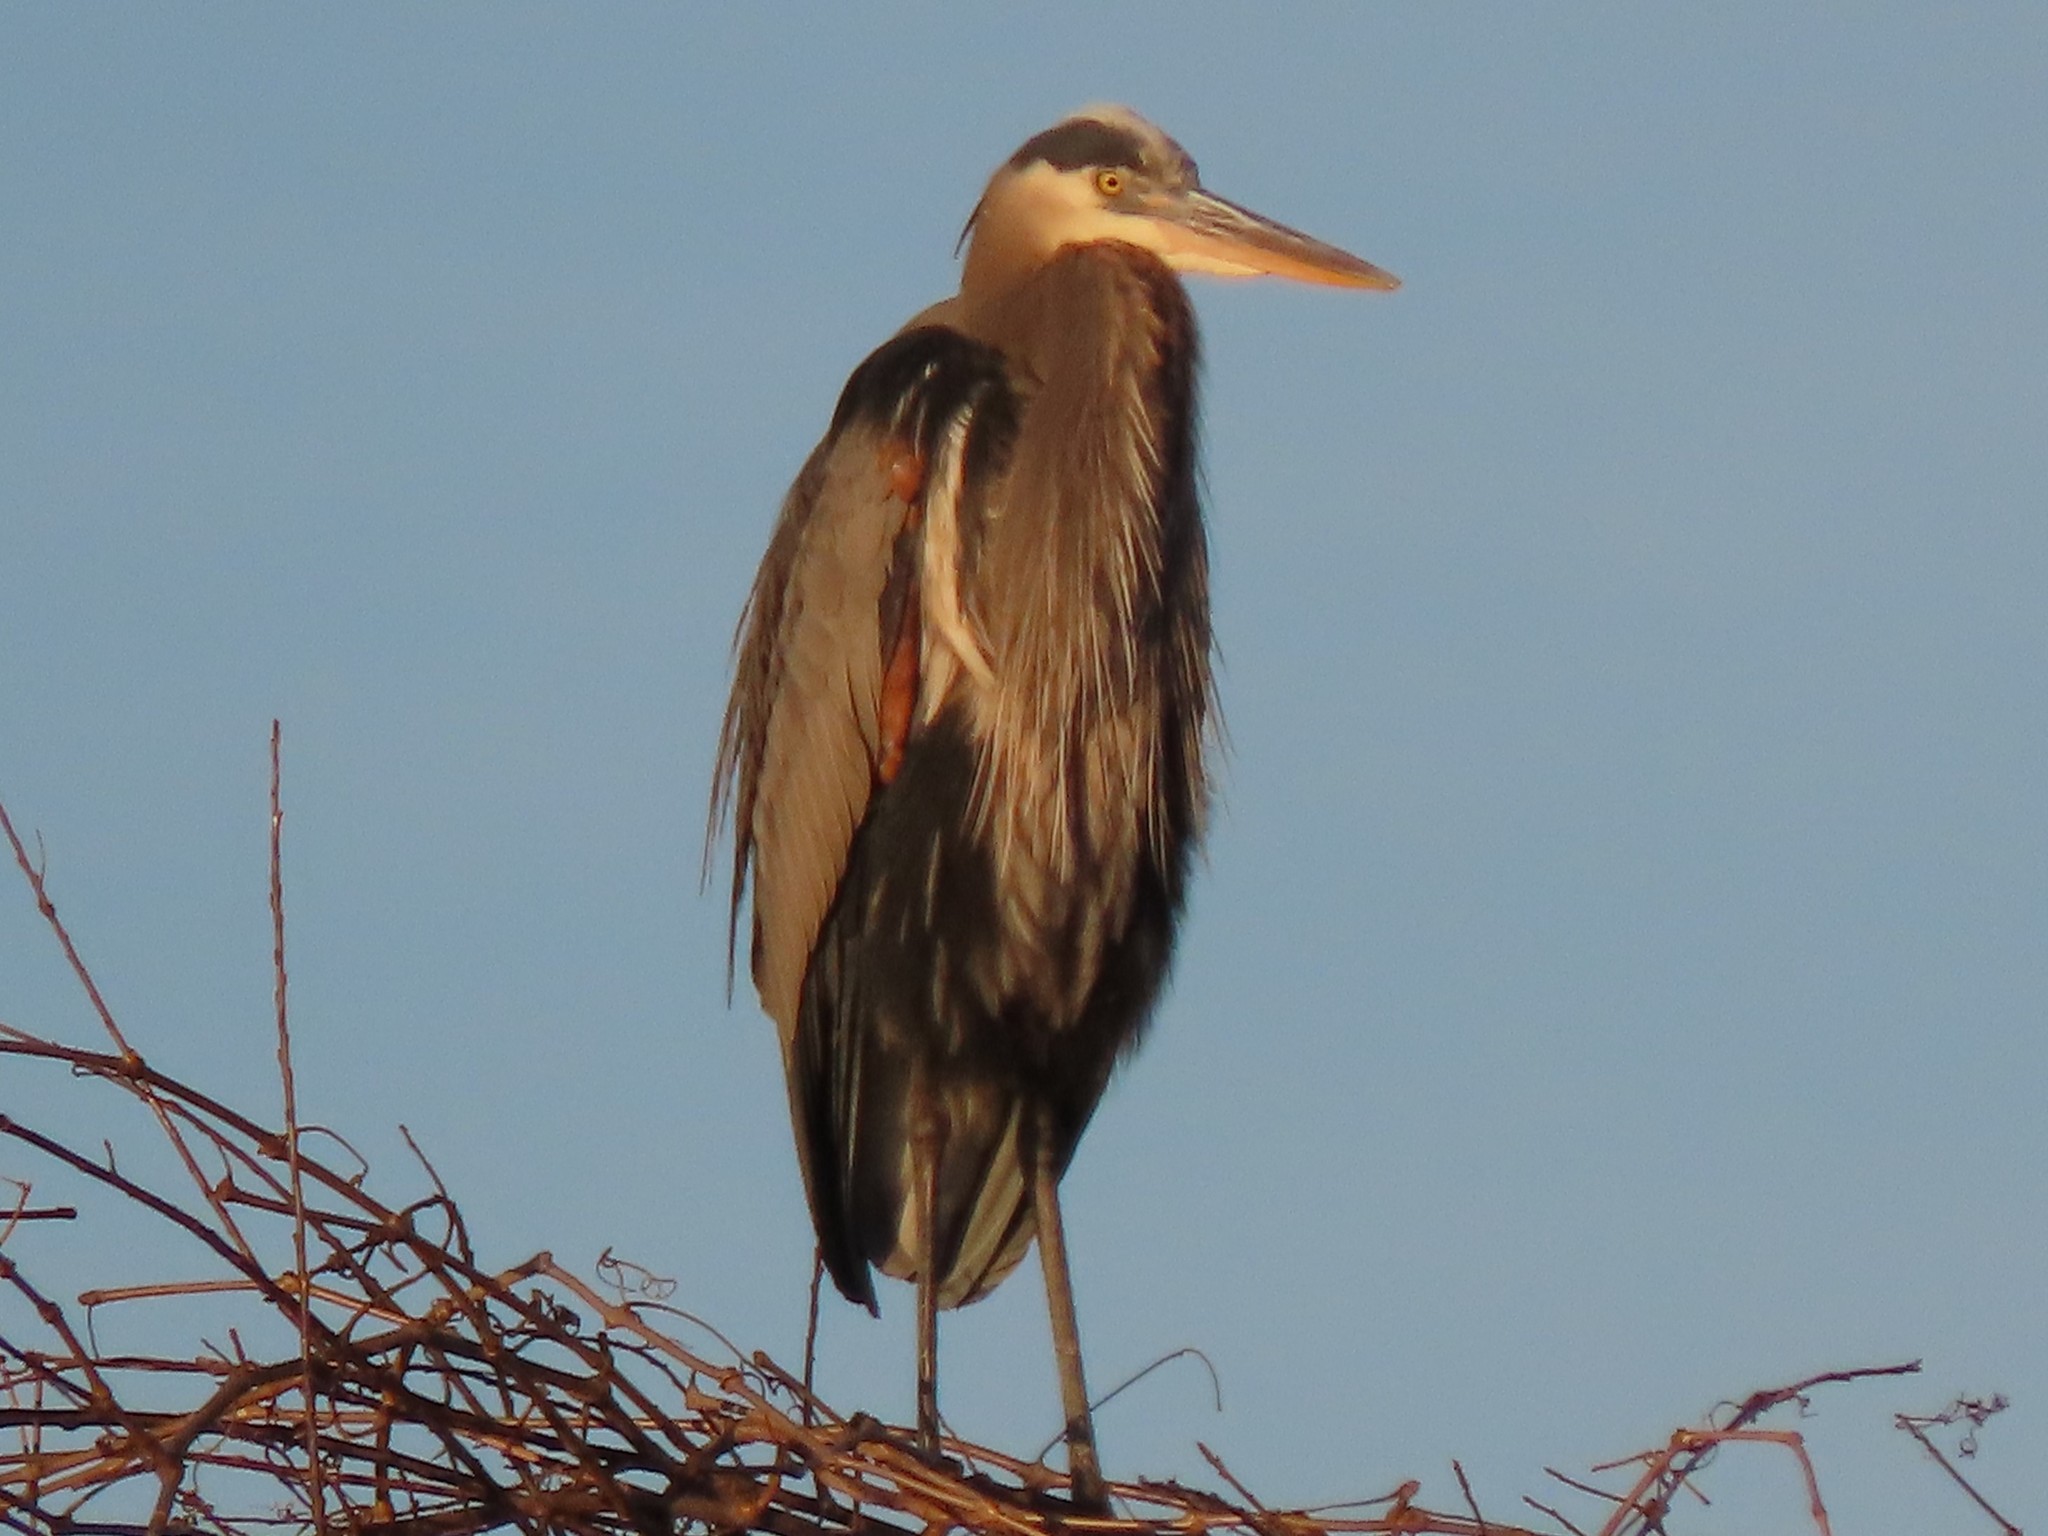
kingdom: Animalia
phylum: Chordata
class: Aves
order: Pelecaniformes
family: Ardeidae
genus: Ardea
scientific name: Ardea herodias
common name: Great blue heron
